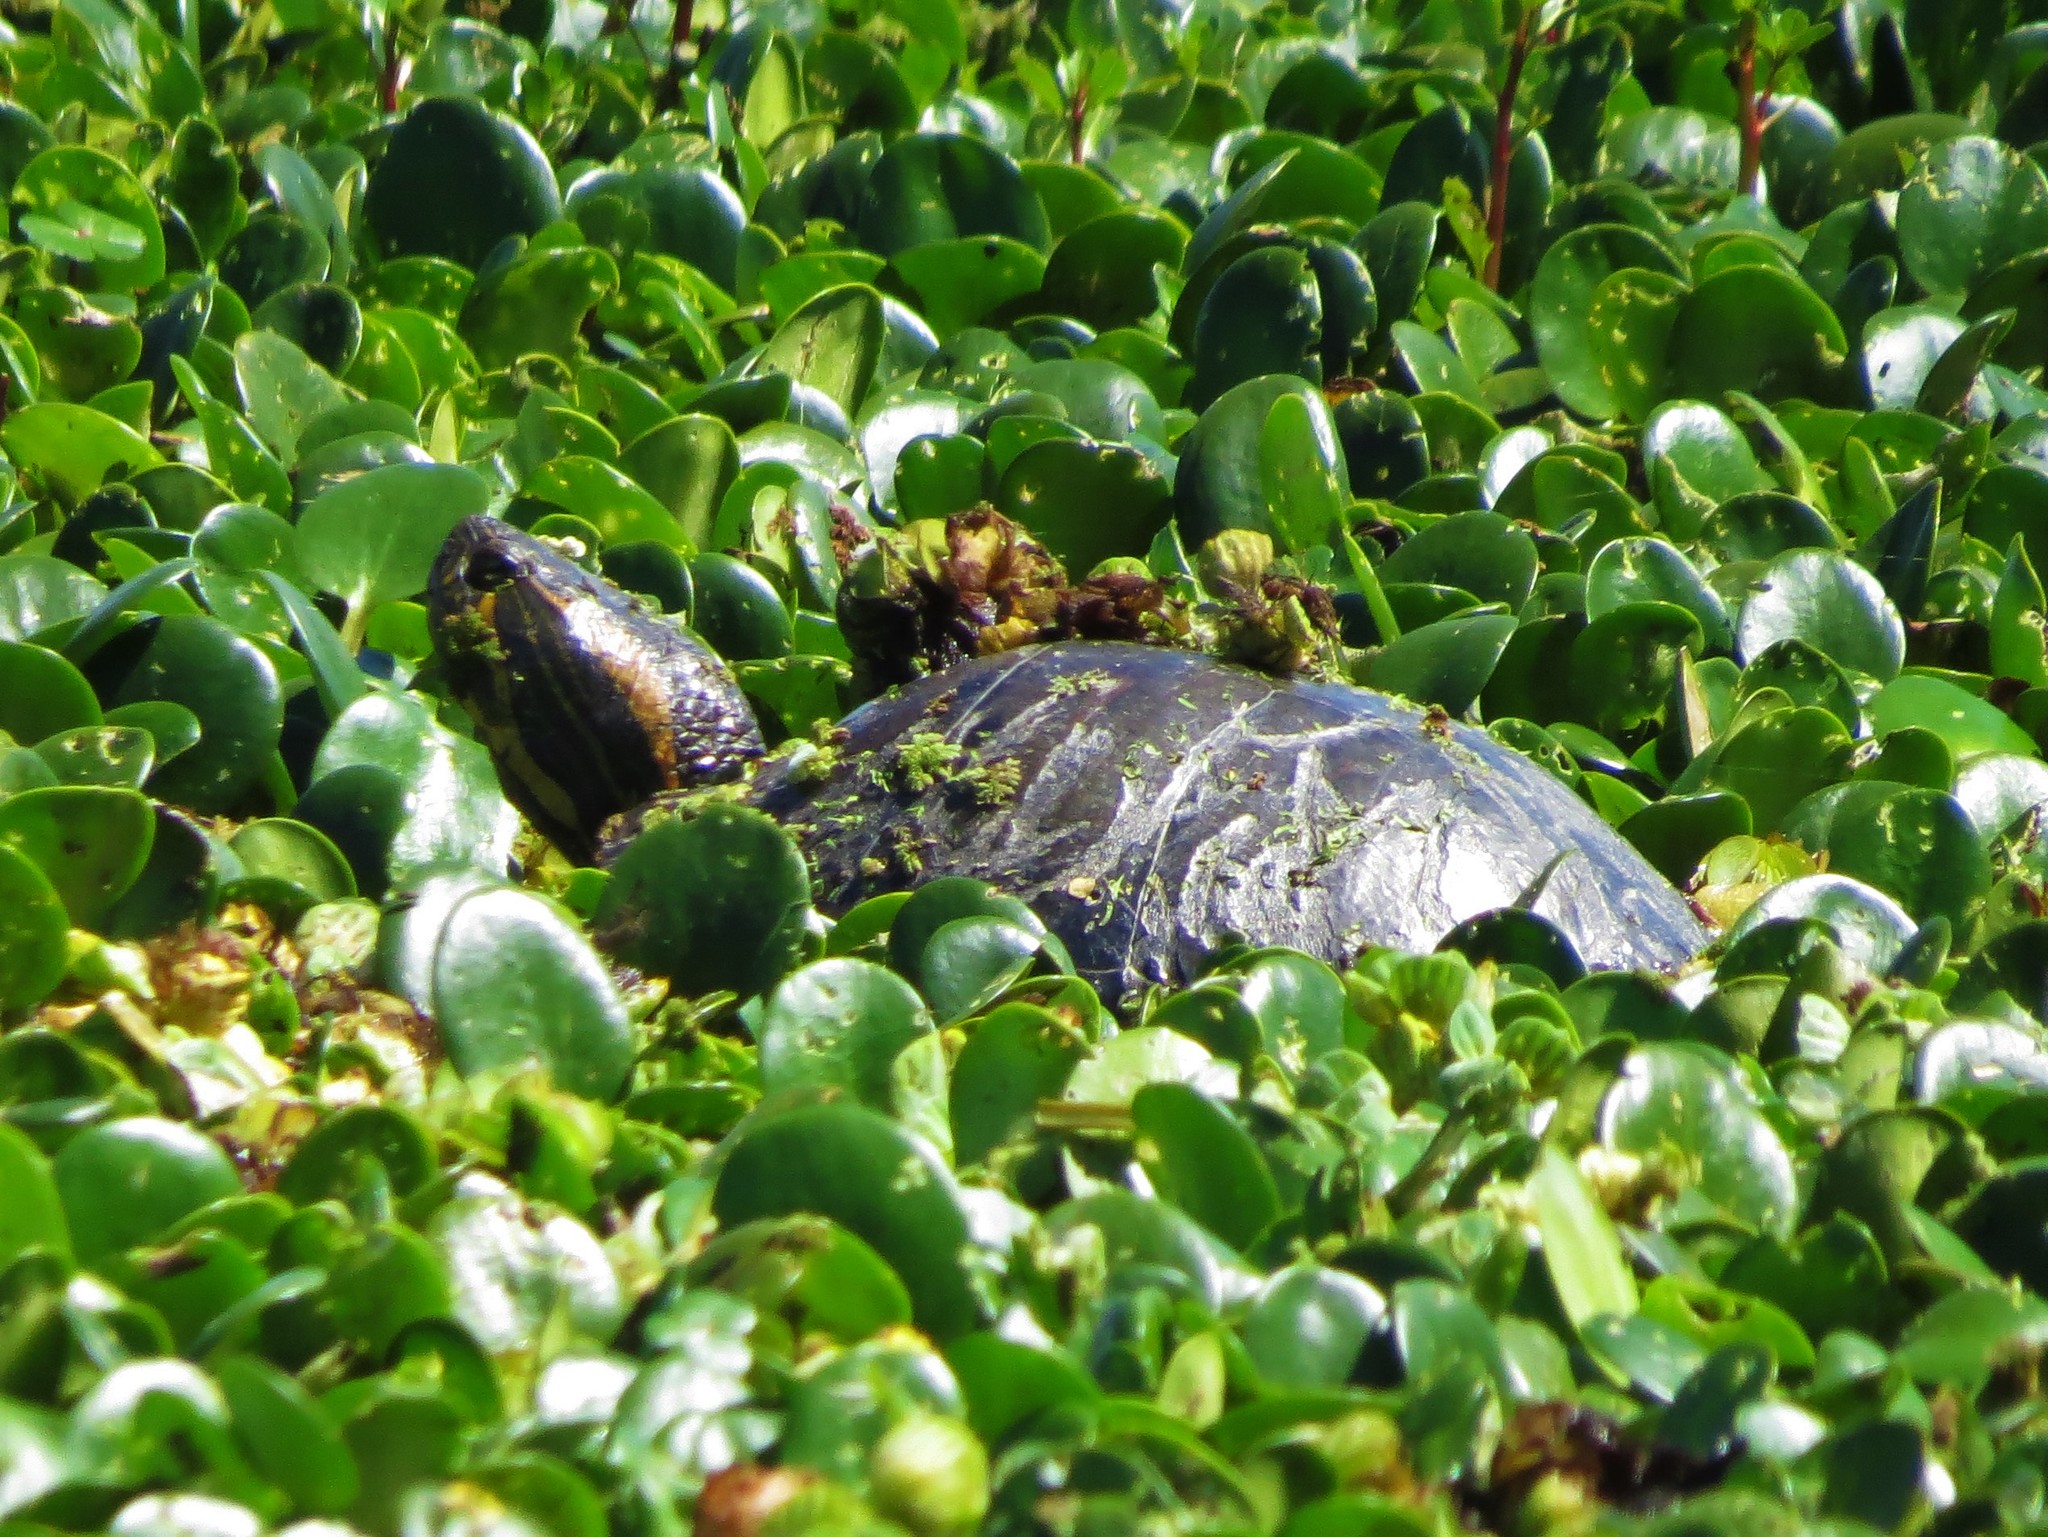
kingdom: Animalia
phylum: Chordata
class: Testudines
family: Emydidae
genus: Trachemys
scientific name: Trachemys dorbigni
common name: Black-bellied slider
